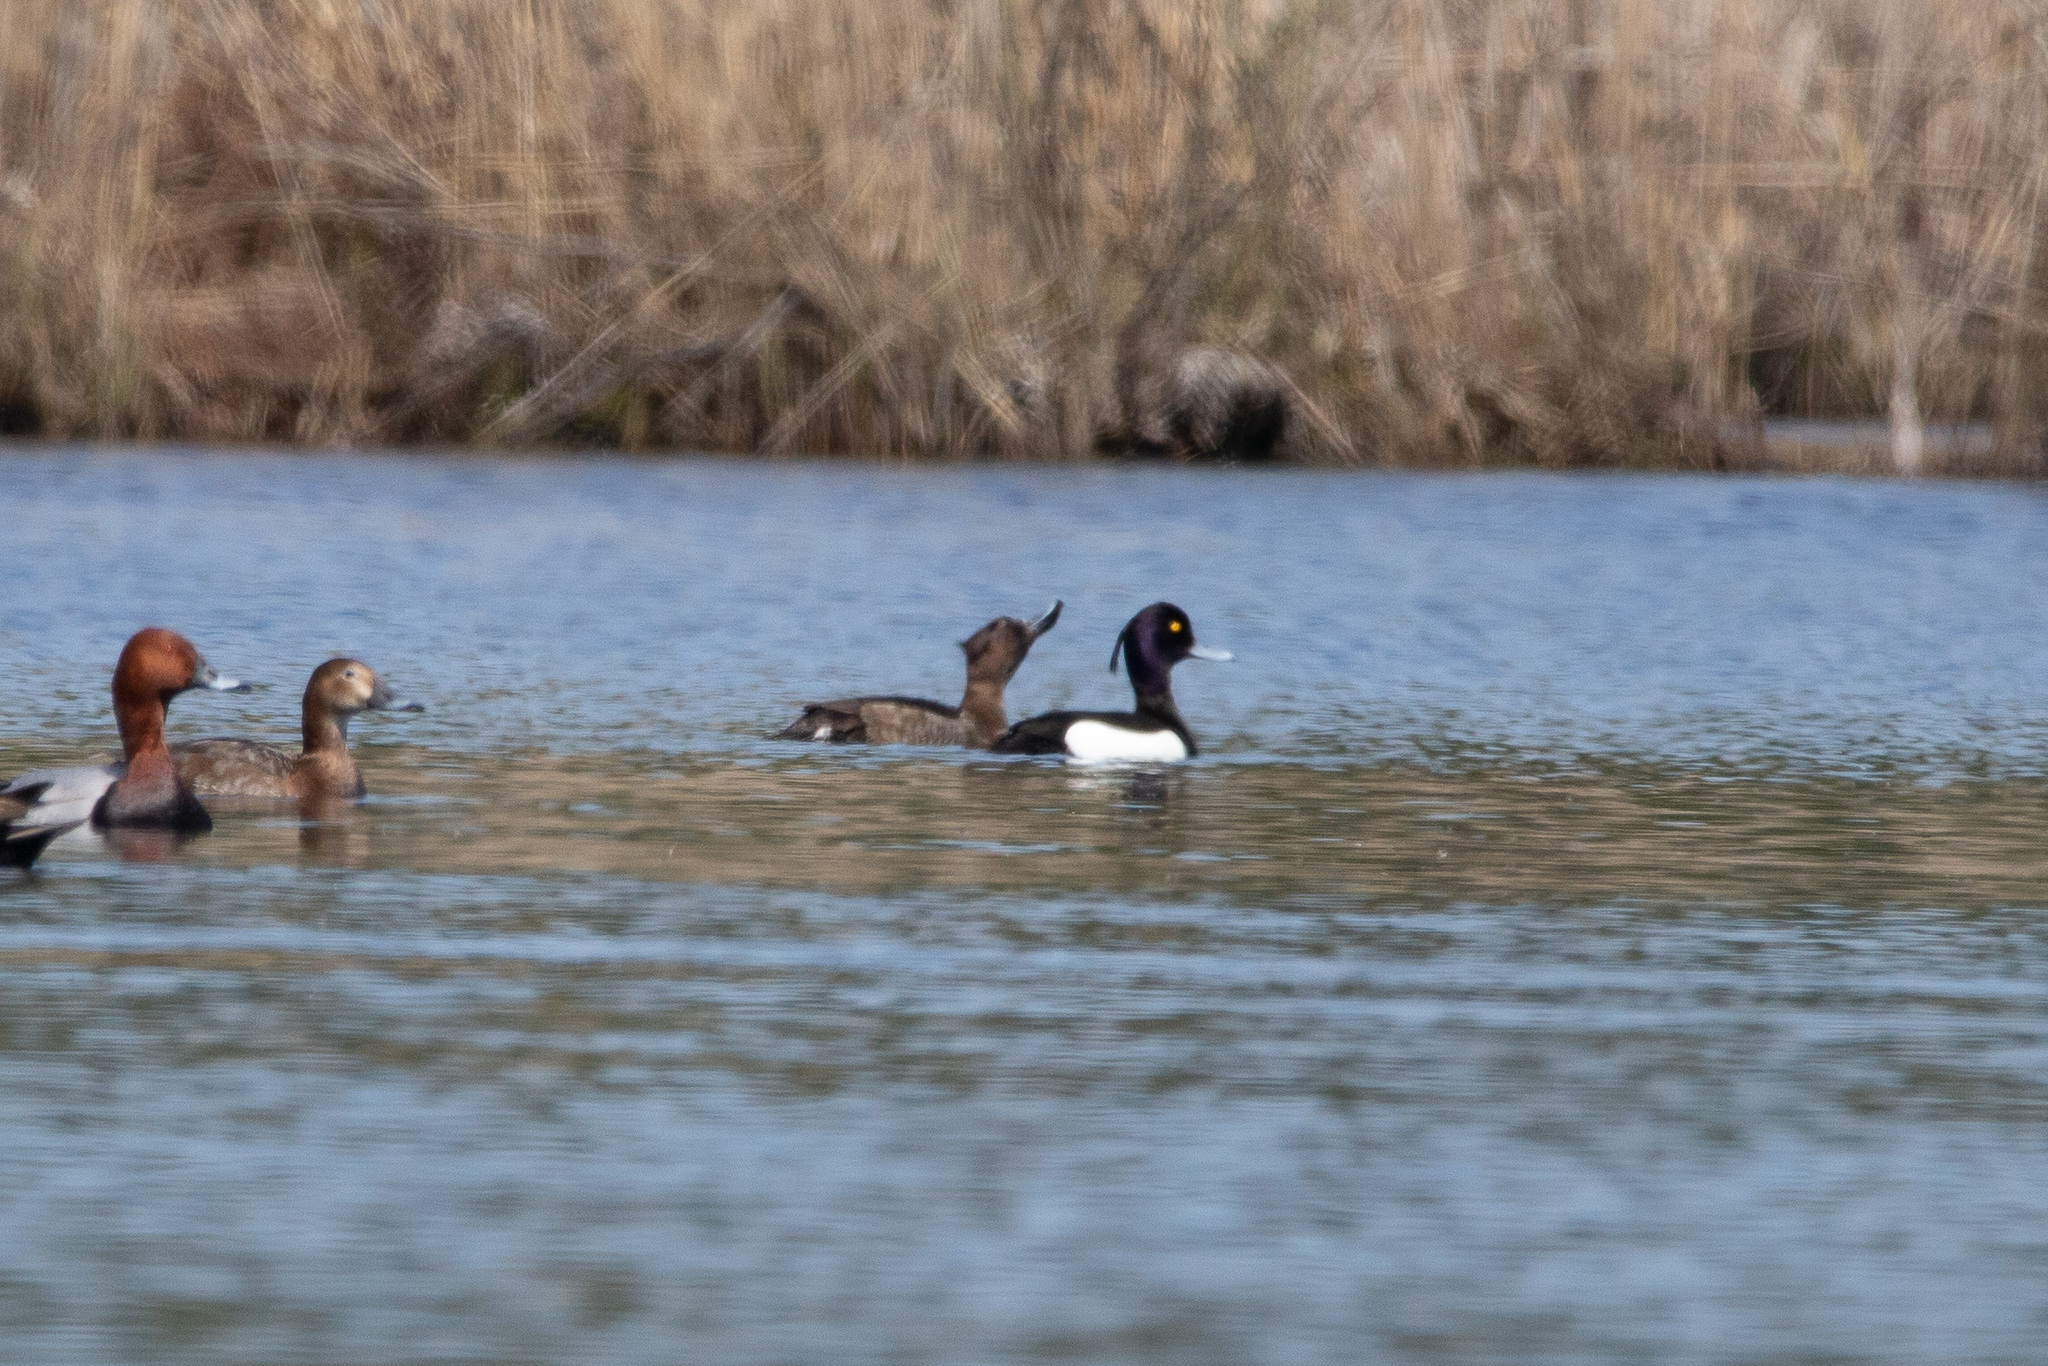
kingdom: Animalia
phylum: Chordata
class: Aves
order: Anseriformes
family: Anatidae
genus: Aythya
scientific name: Aythya fuligula
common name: Tufted duck
